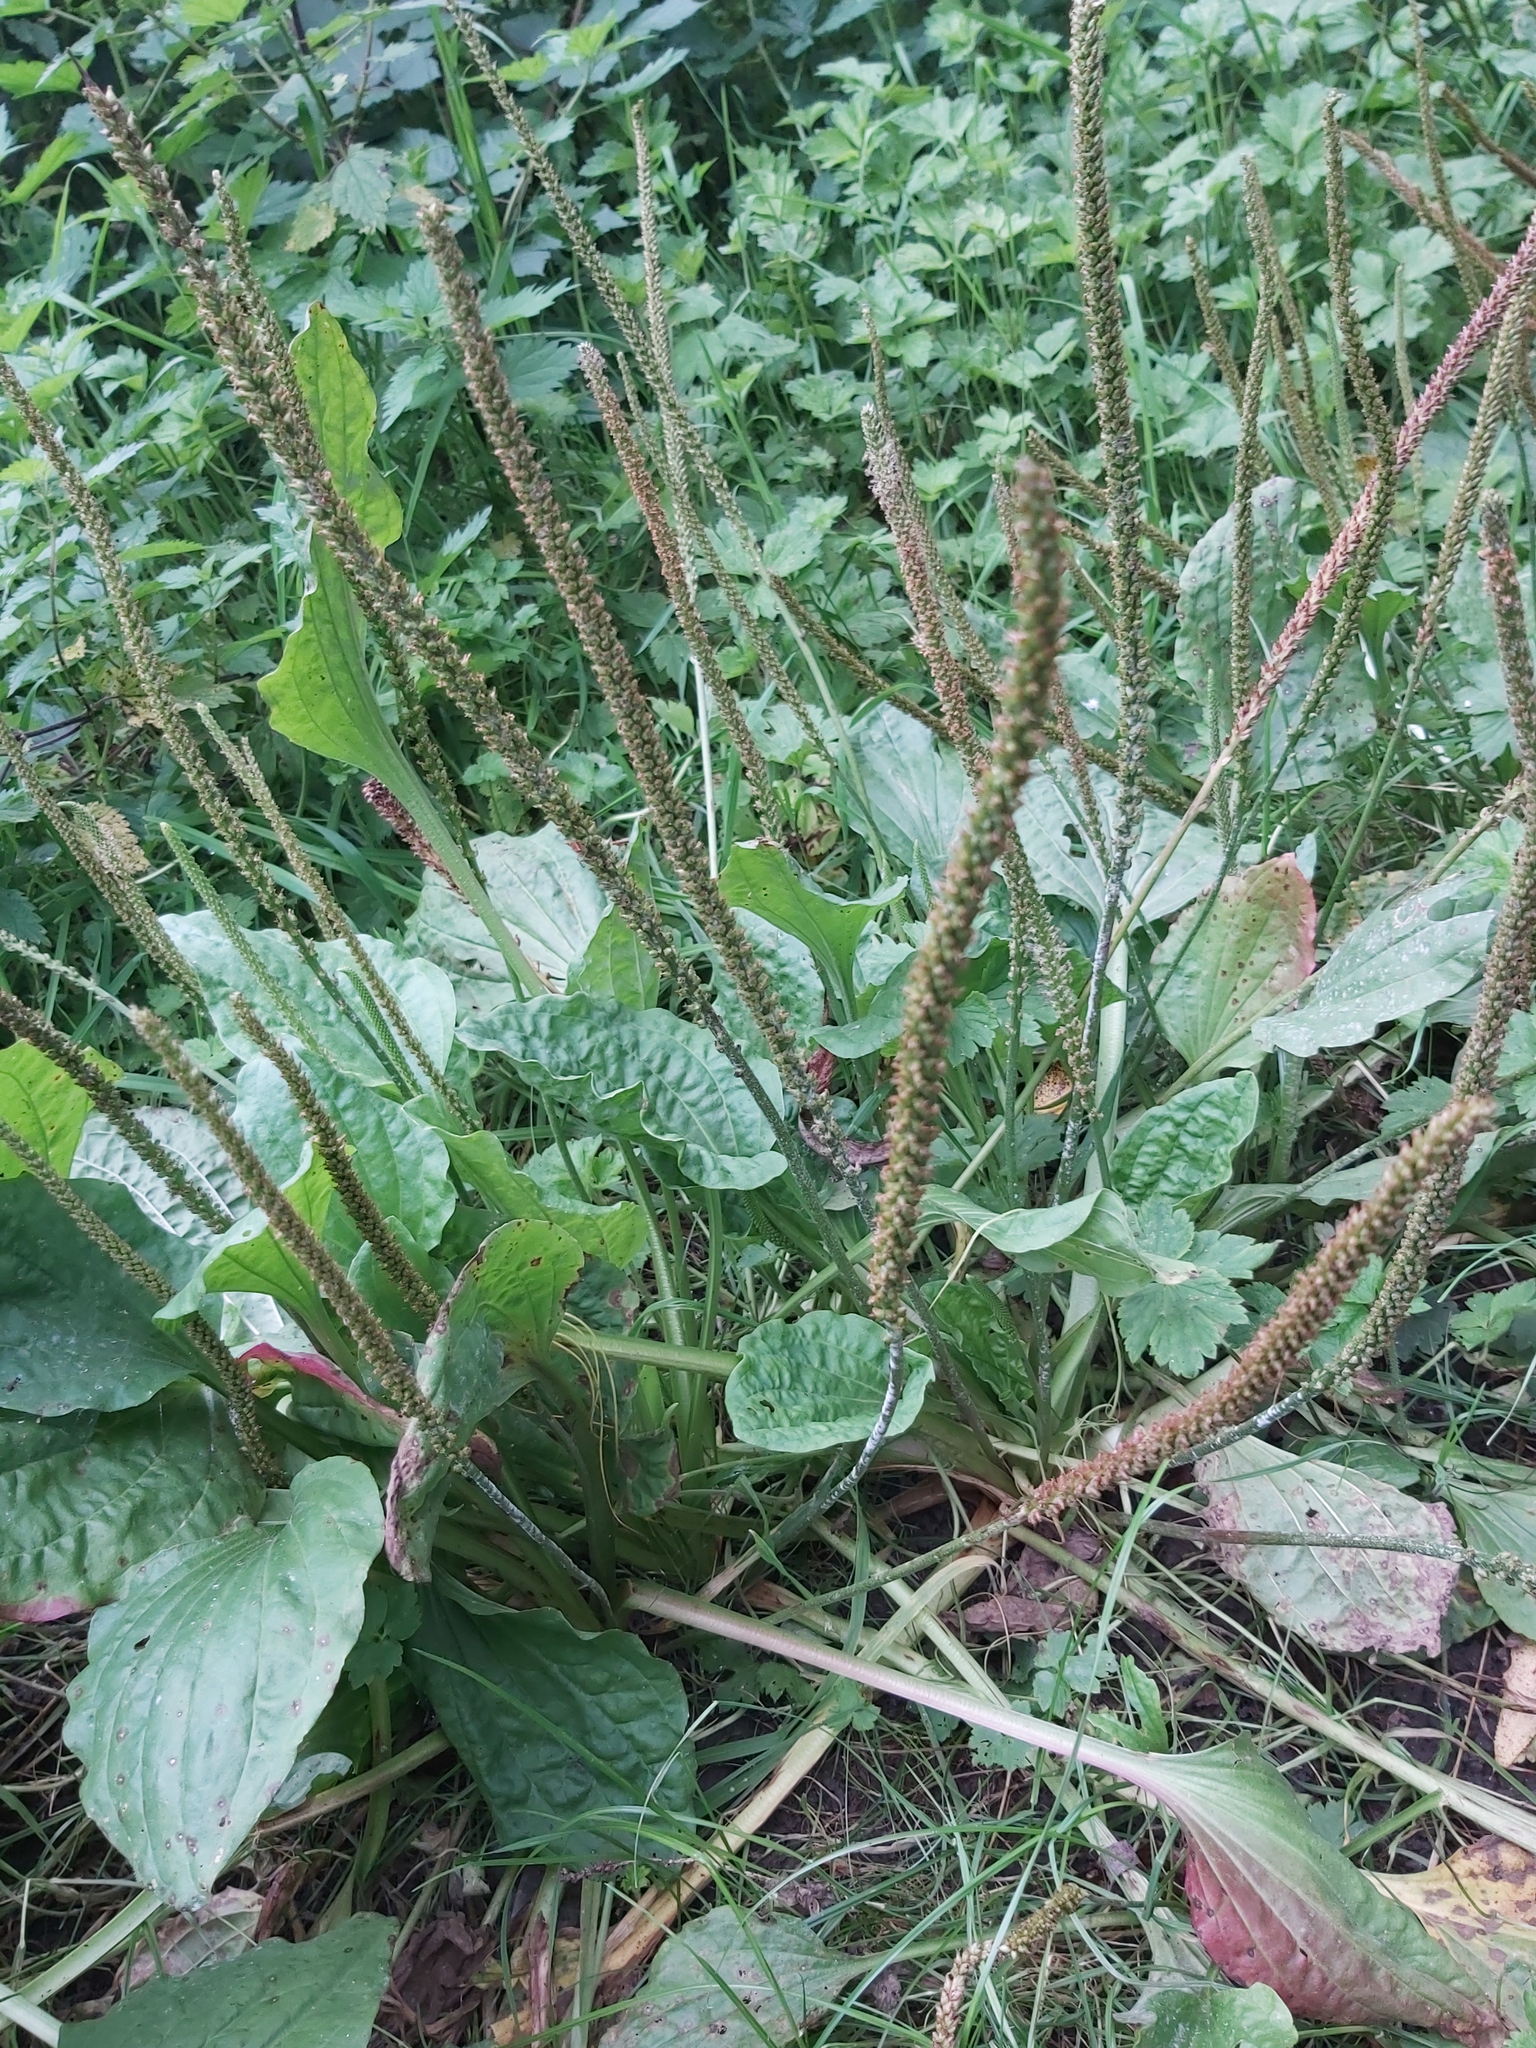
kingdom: Plantae
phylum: Tracheophyta
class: Magnoliopsida
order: Lamiales
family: Plantaginaceae
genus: Plantago
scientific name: Plantago major
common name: Common plantain
